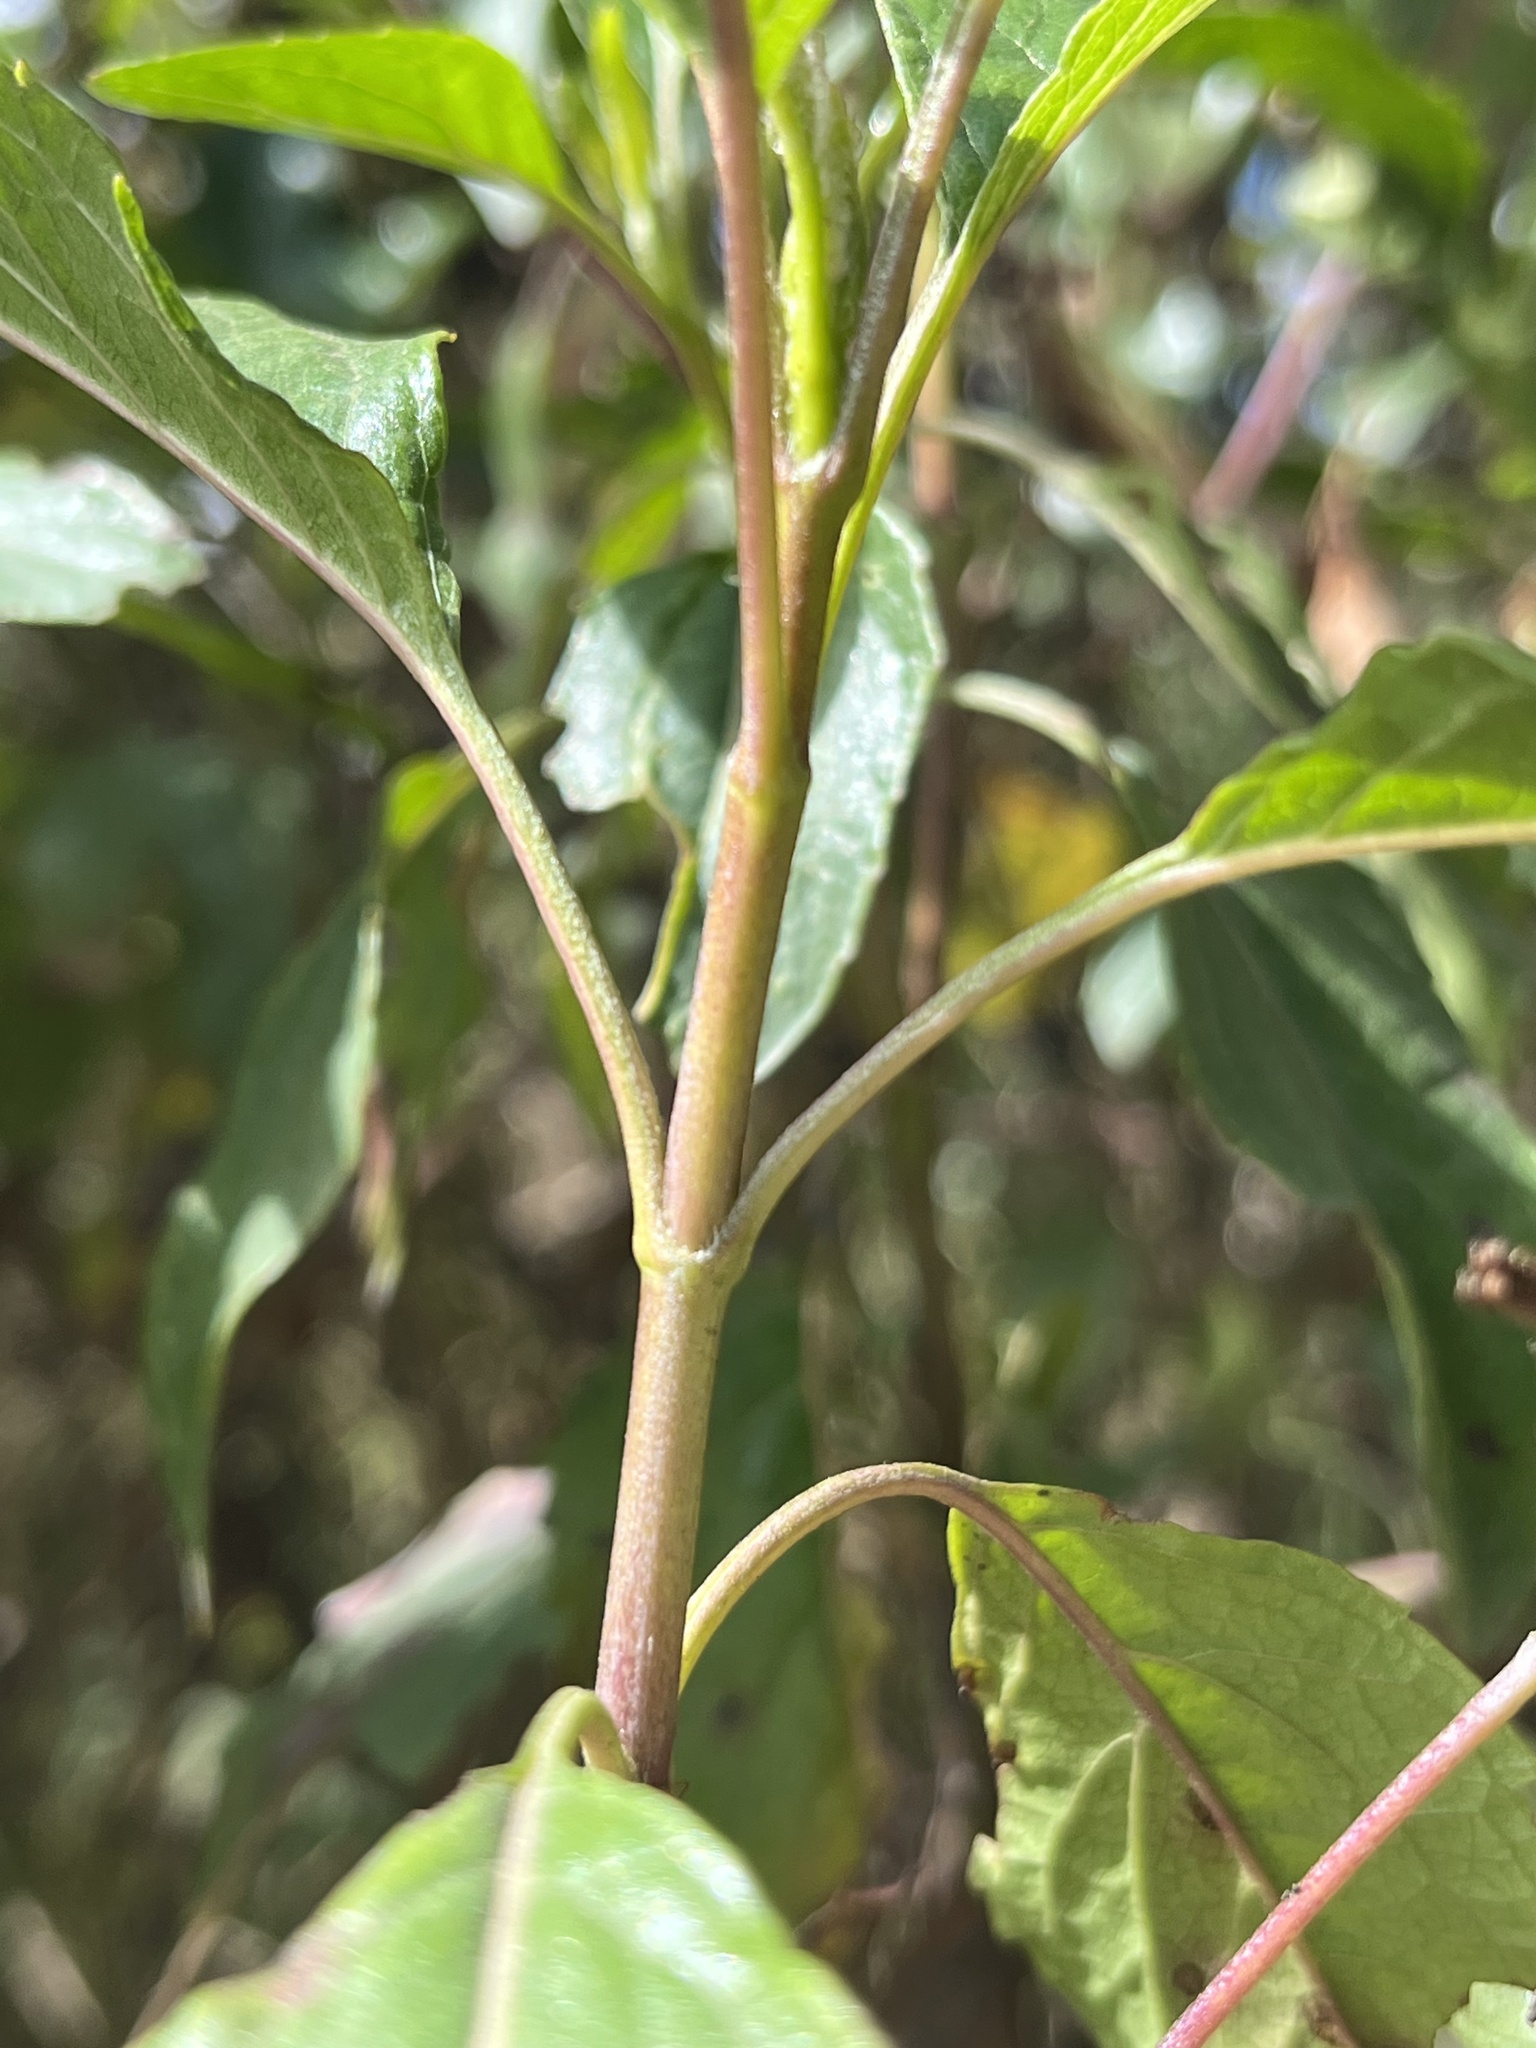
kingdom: Plantae
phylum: Tracheophyta
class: Magnoliopsida
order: Asterales
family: Asteraceae
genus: Stevia
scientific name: Stevia lucida
